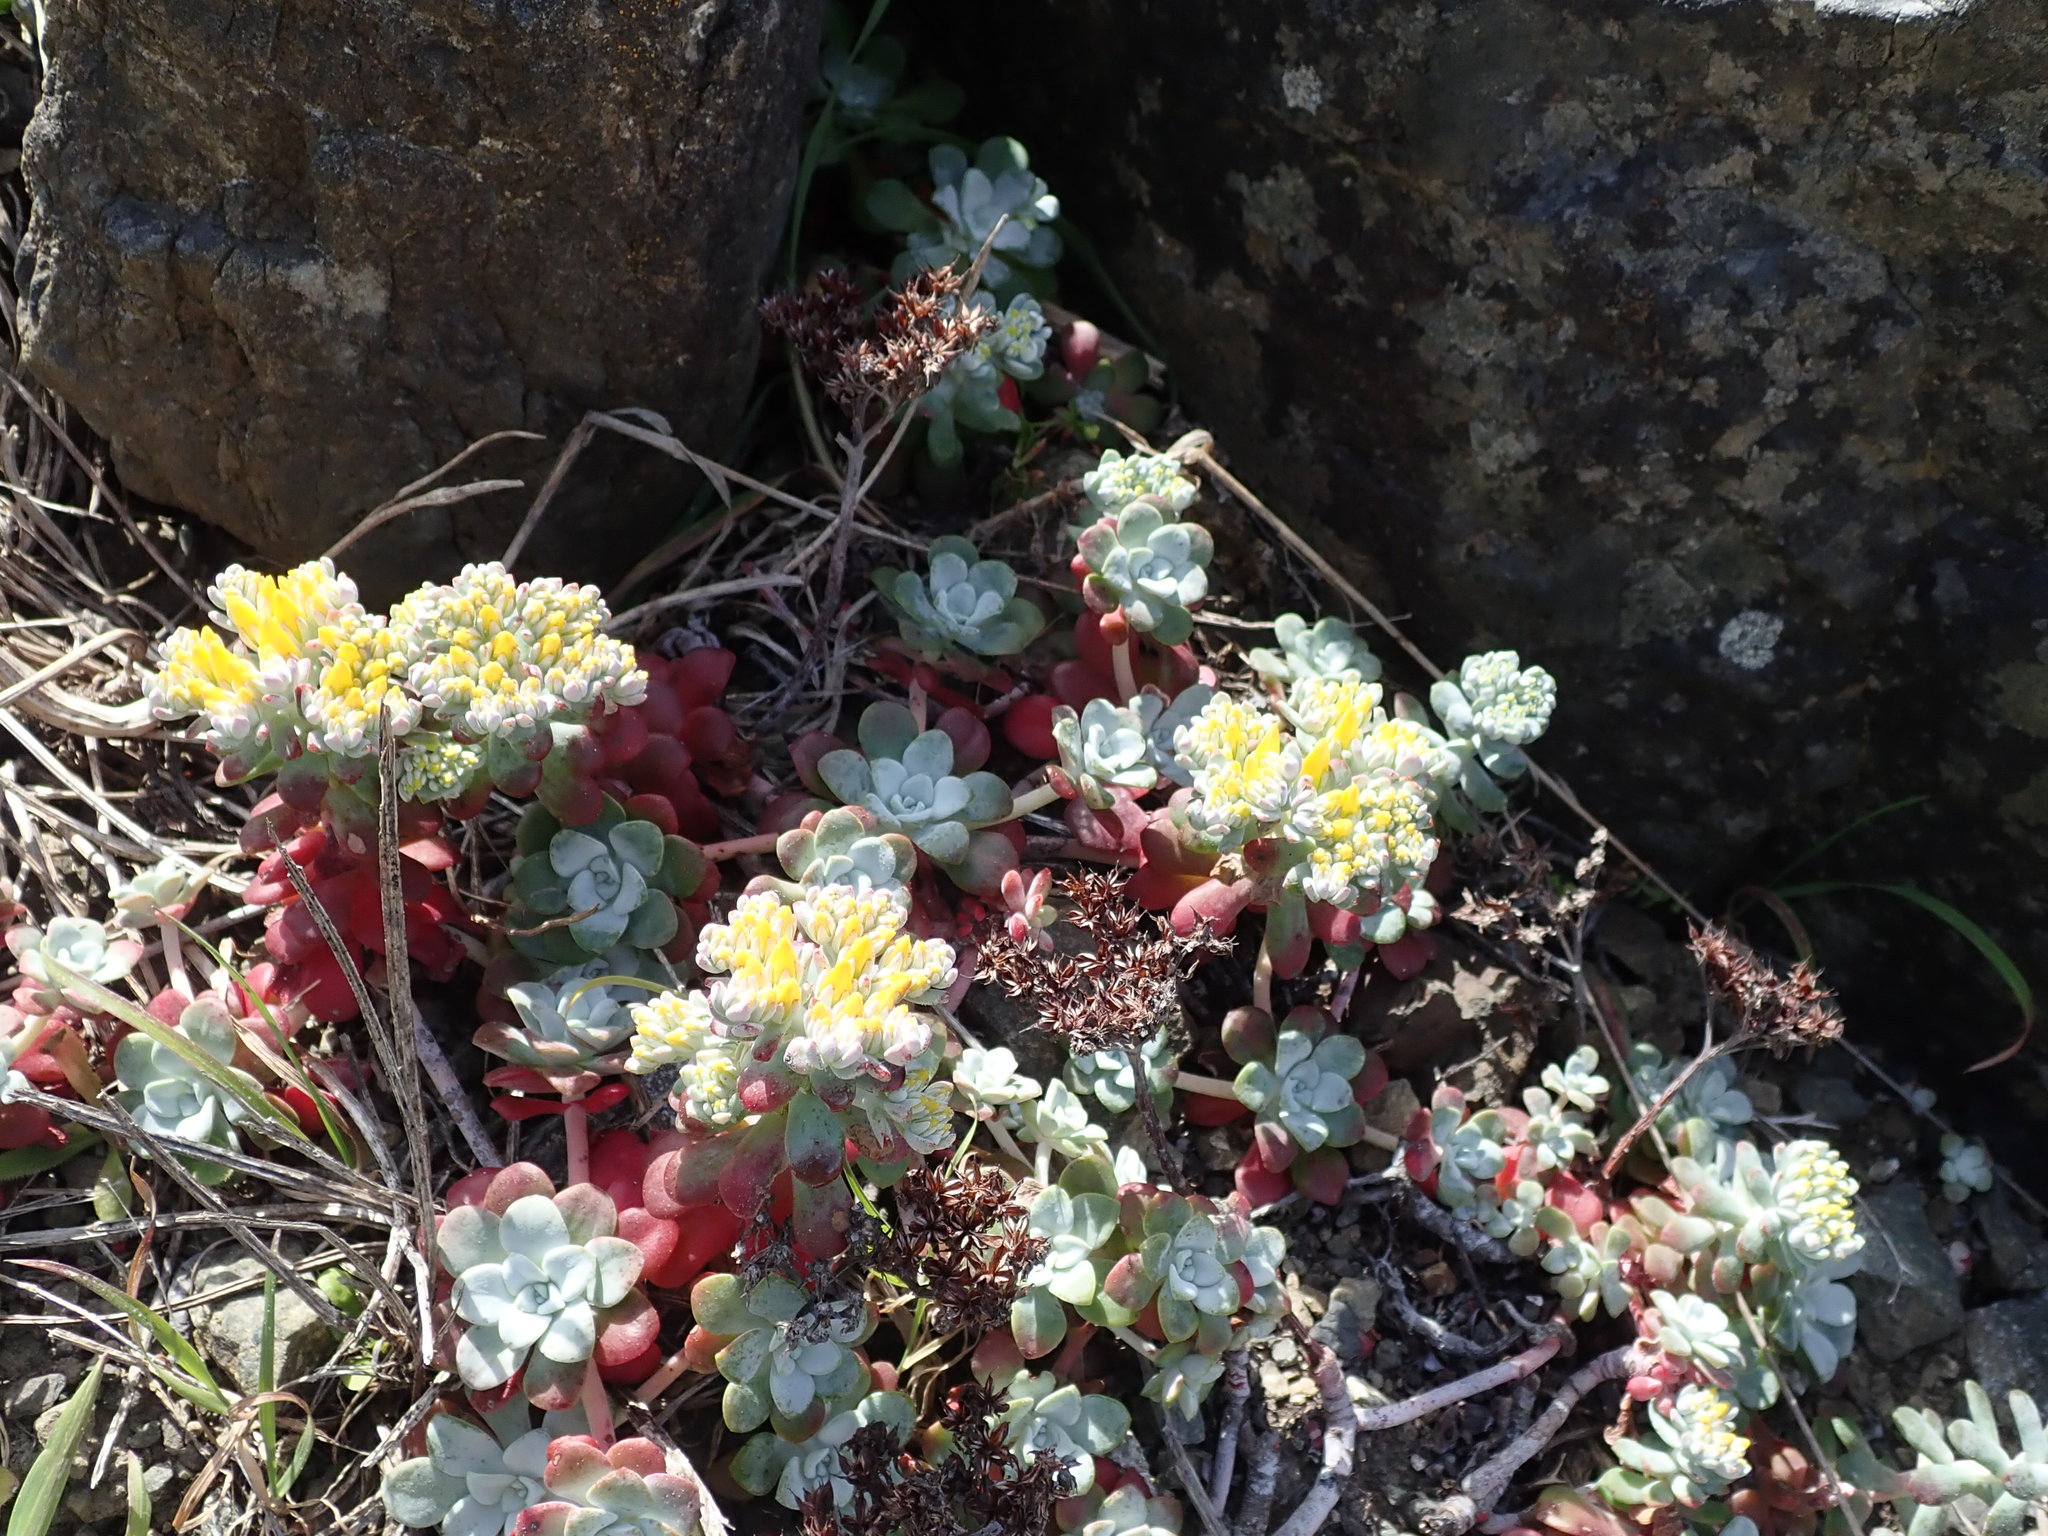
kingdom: Plantae
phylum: Tracheophyta
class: Magnoliopsida
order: Saxifragales
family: Crassulaceae
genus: Sedum
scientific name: Sedum spathulifolium
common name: Colorado stonecrop
